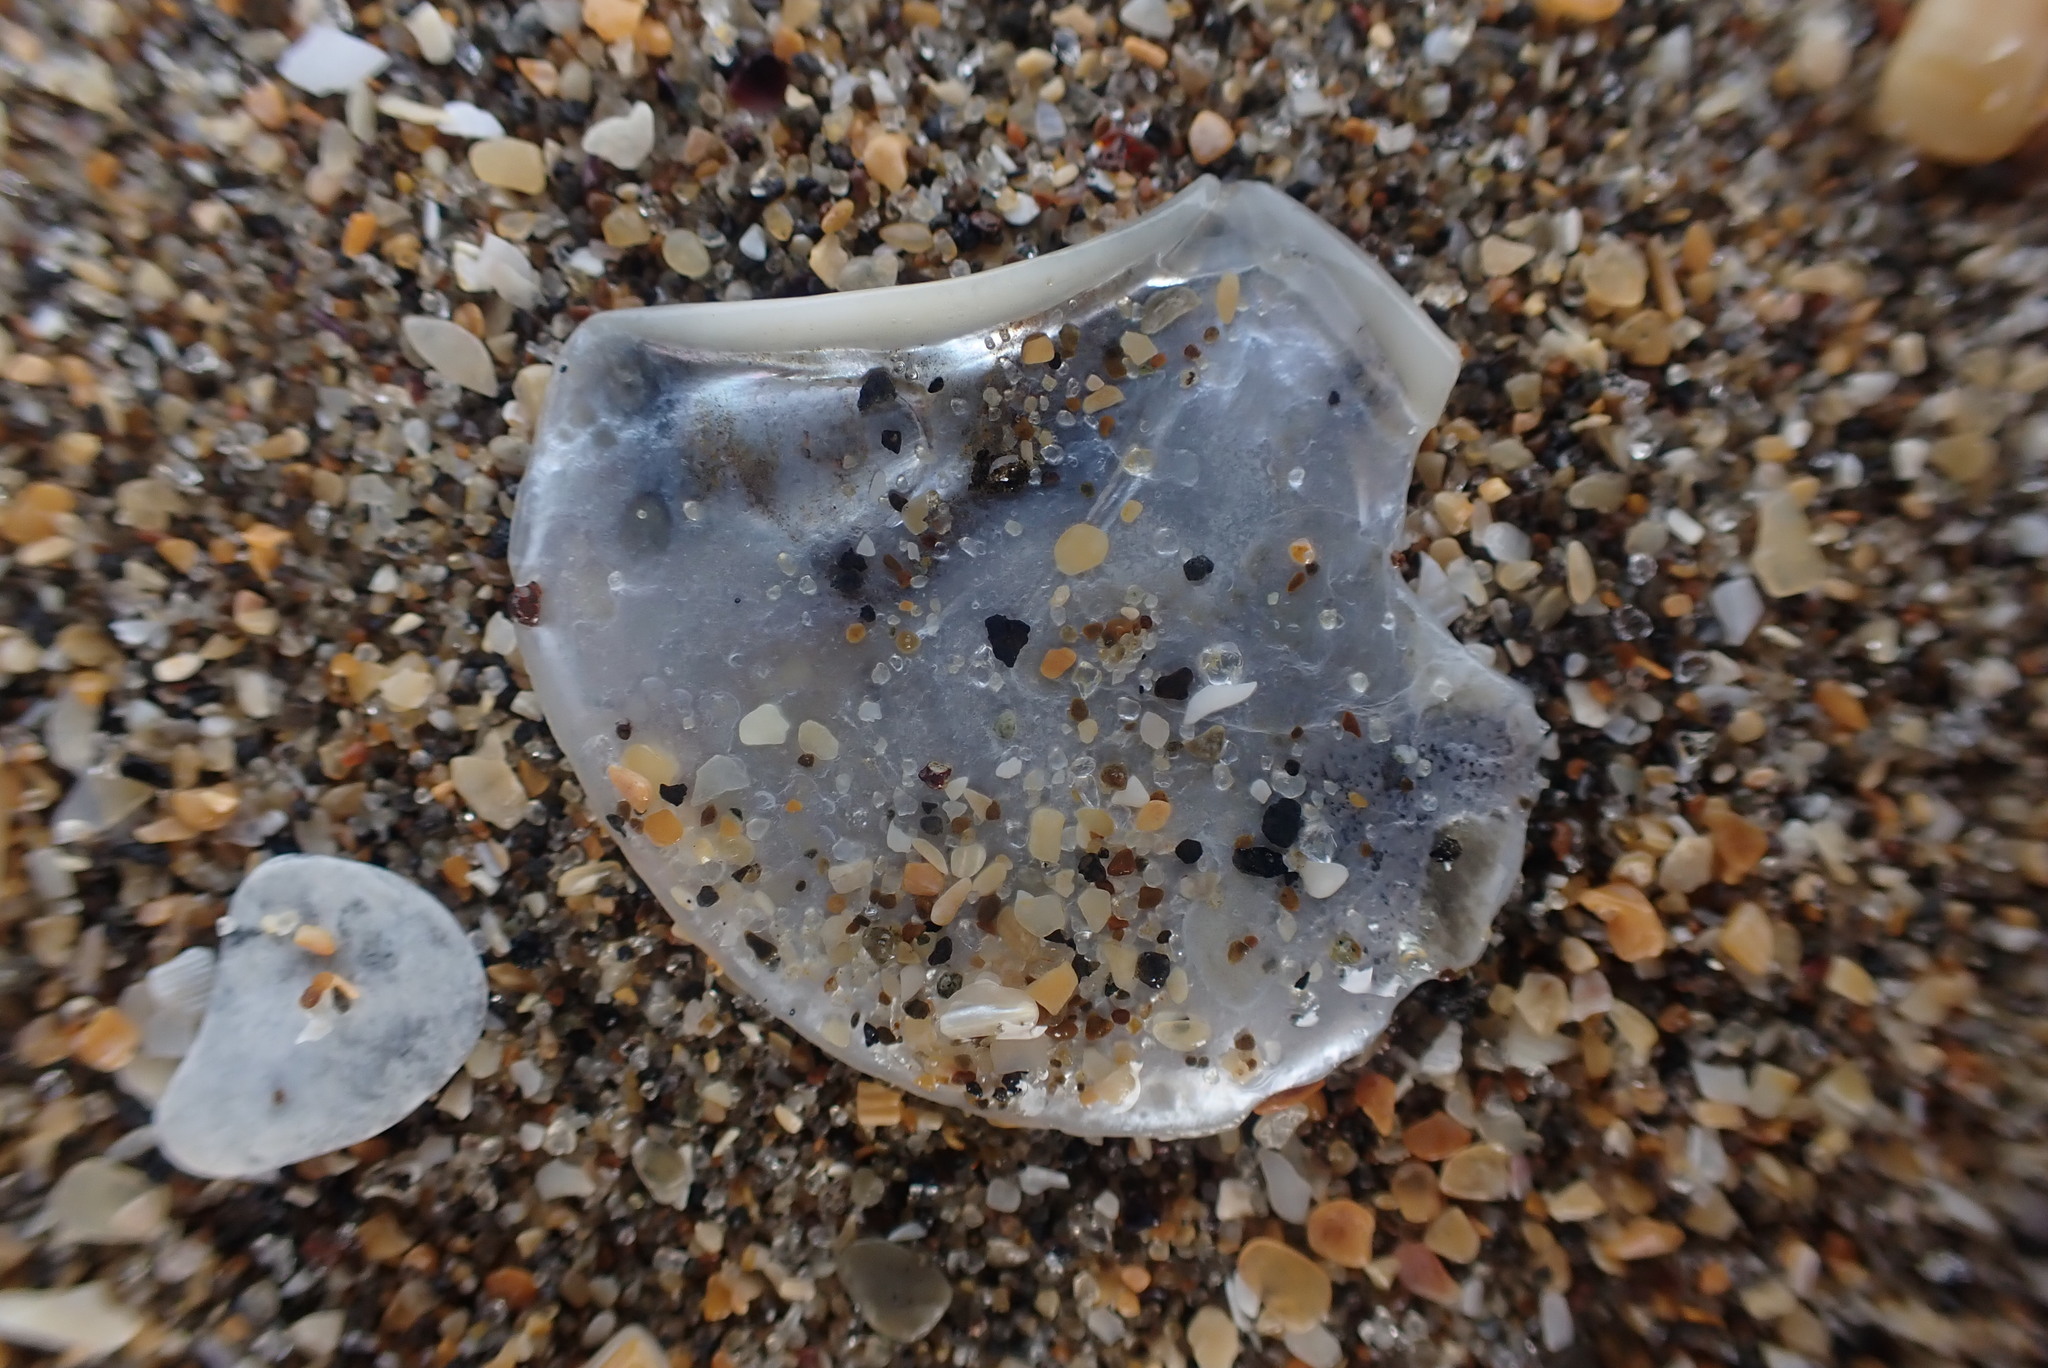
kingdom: Animalia
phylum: Mollusca
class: Bivalvia
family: Myochamidae
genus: Myadora
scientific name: Myadora striata
